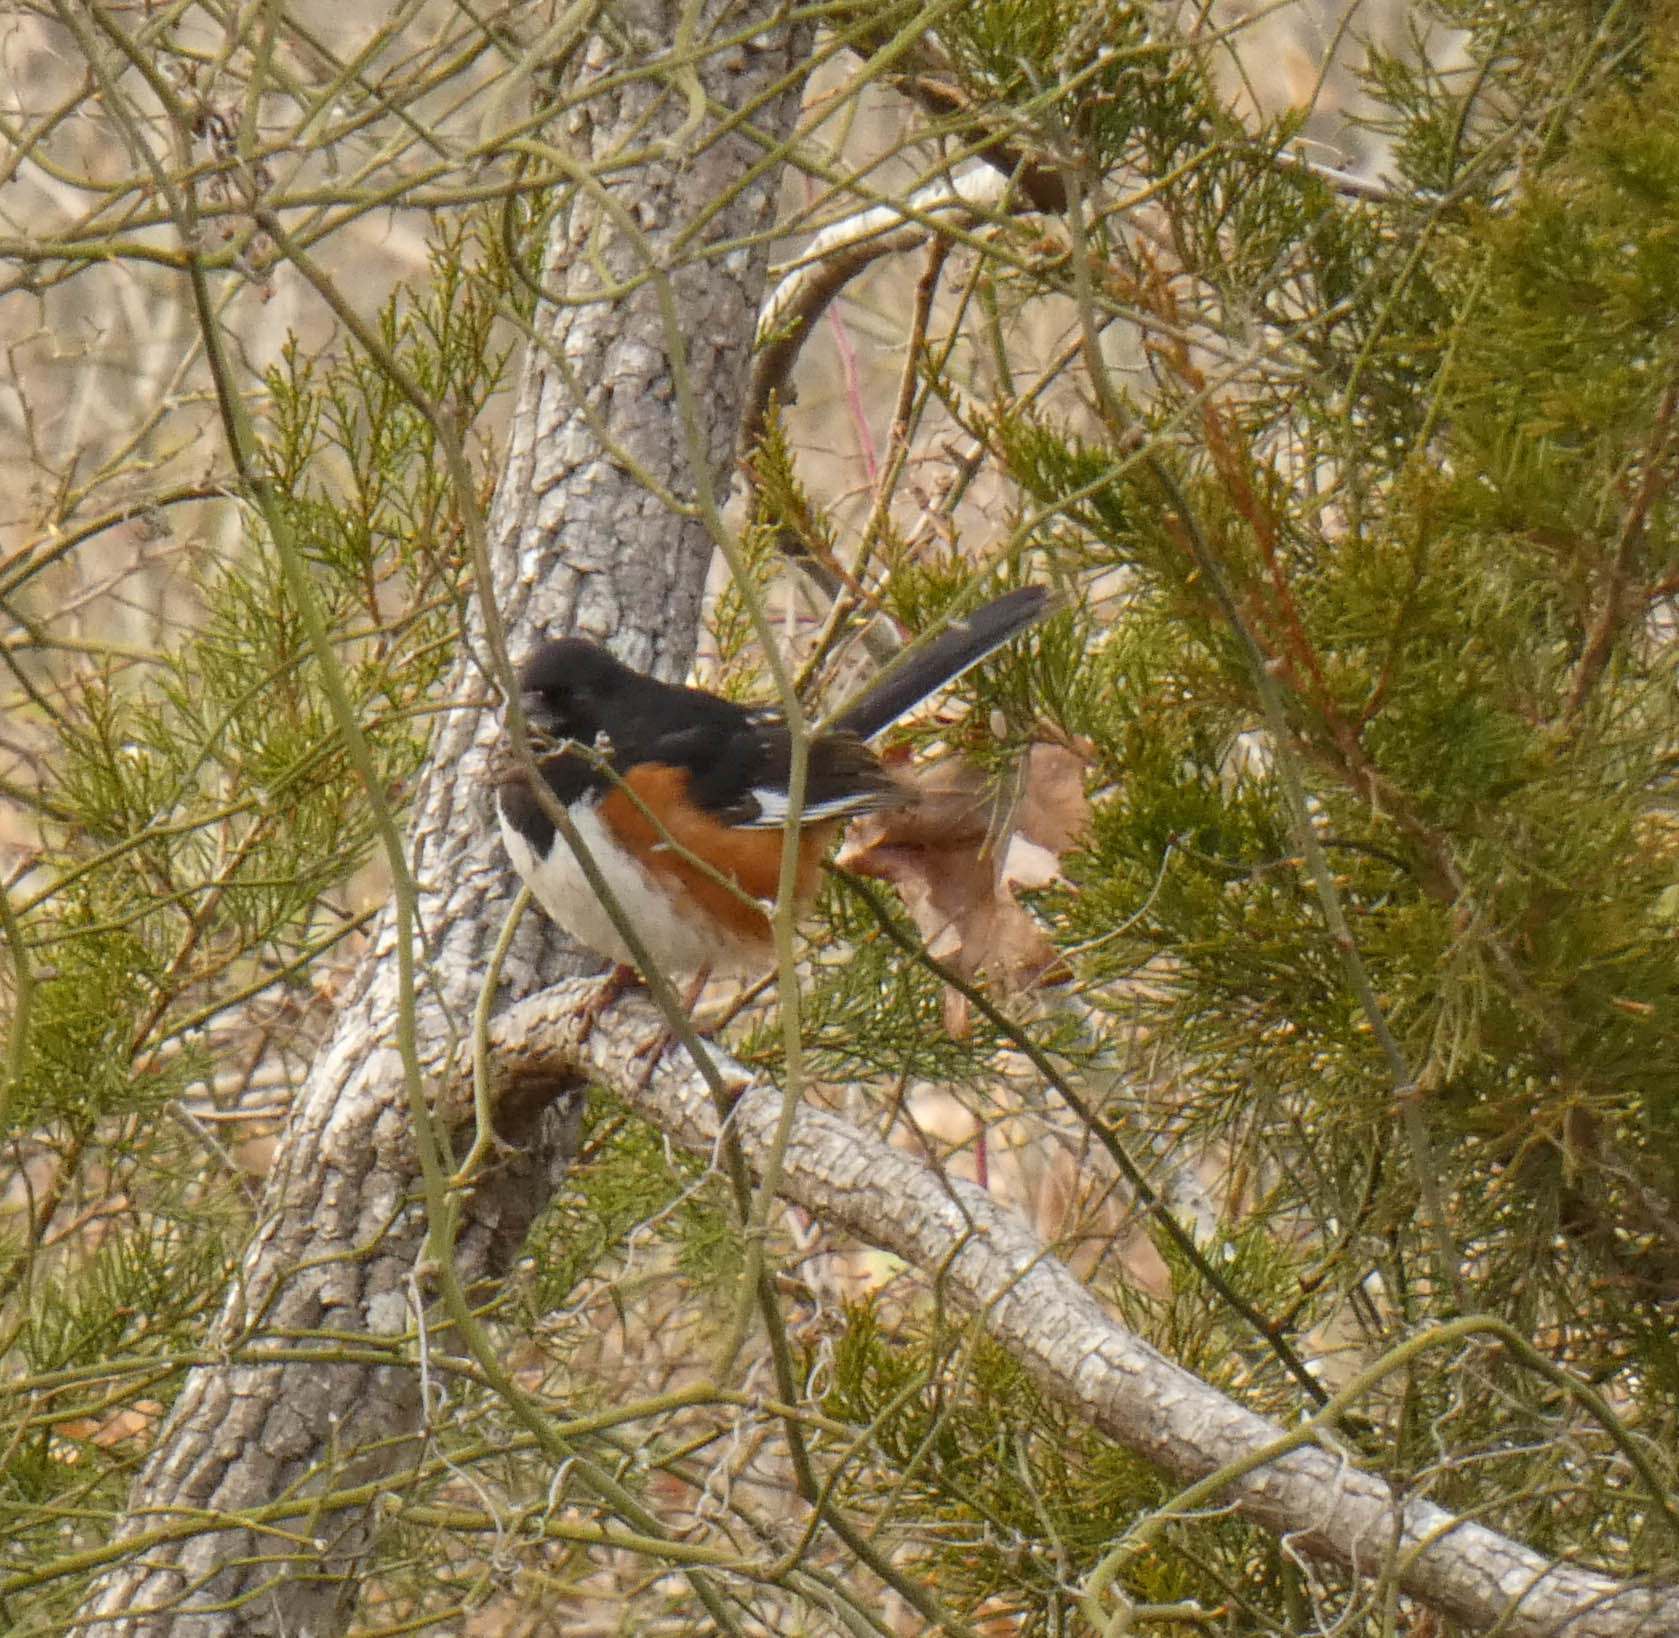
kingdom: Animalia
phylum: Chordata
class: Aves
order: Passeriformes
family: Passerellidae
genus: Pipilo
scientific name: Pipilo erythrophthalmus
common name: Eastern towhee
